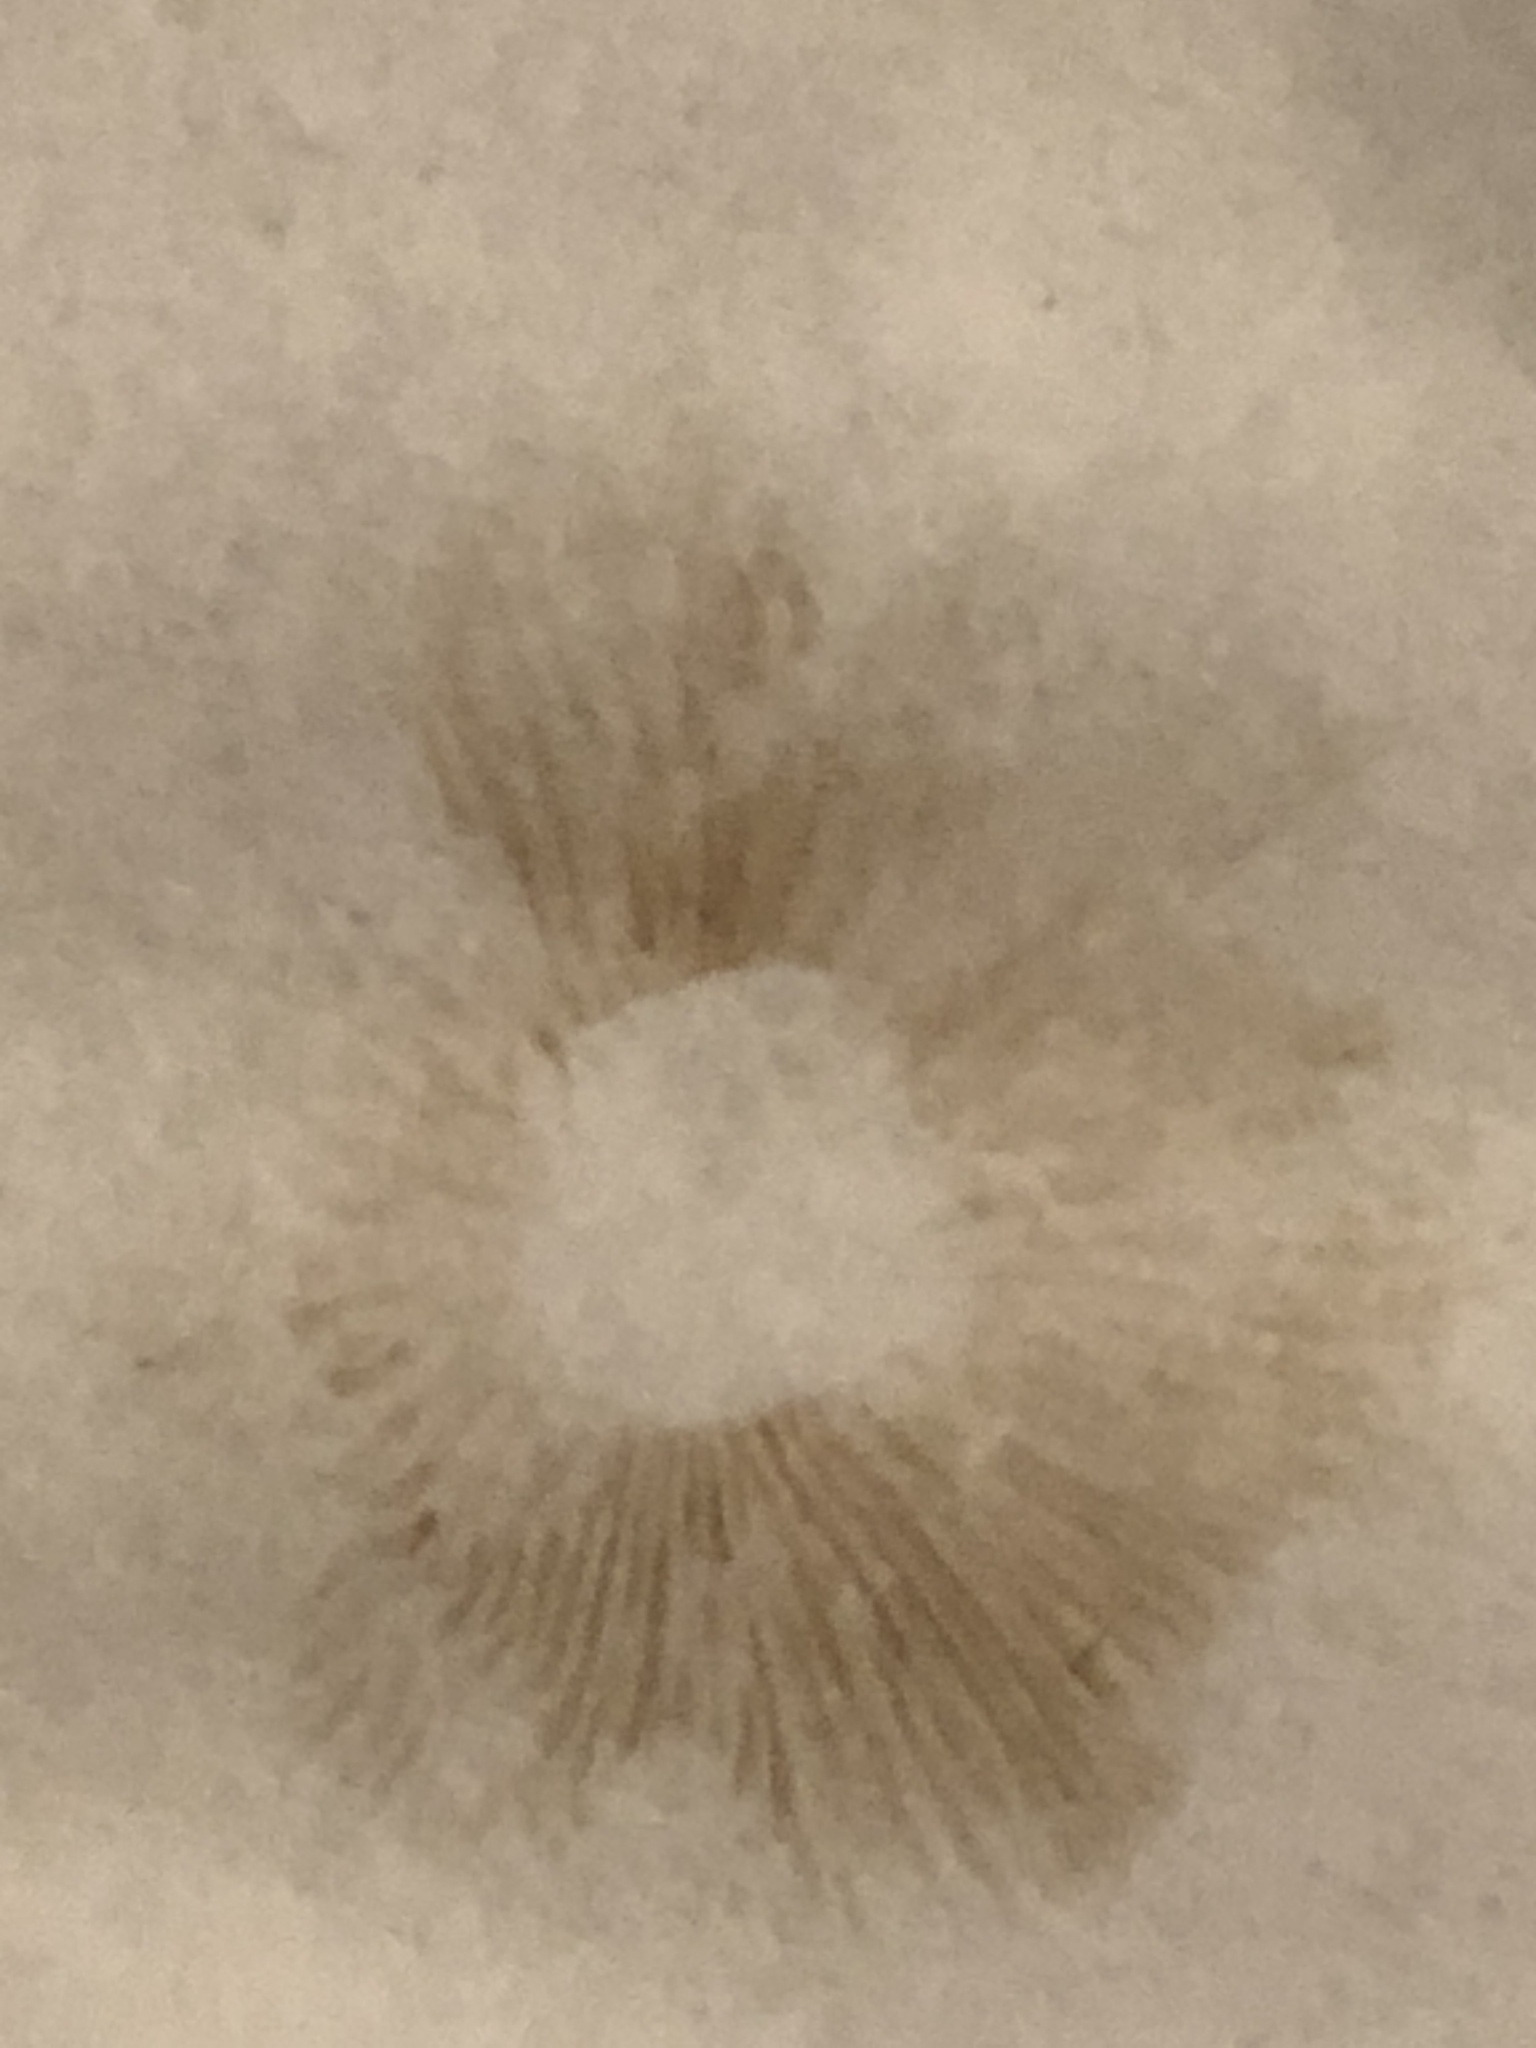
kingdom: Fungi
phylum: Basidiomycota
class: Agaricomycetes
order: Agaricales
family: Strophariaceae
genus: Agrocybe
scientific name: Agrocybe praecox
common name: Spring fieldcap
